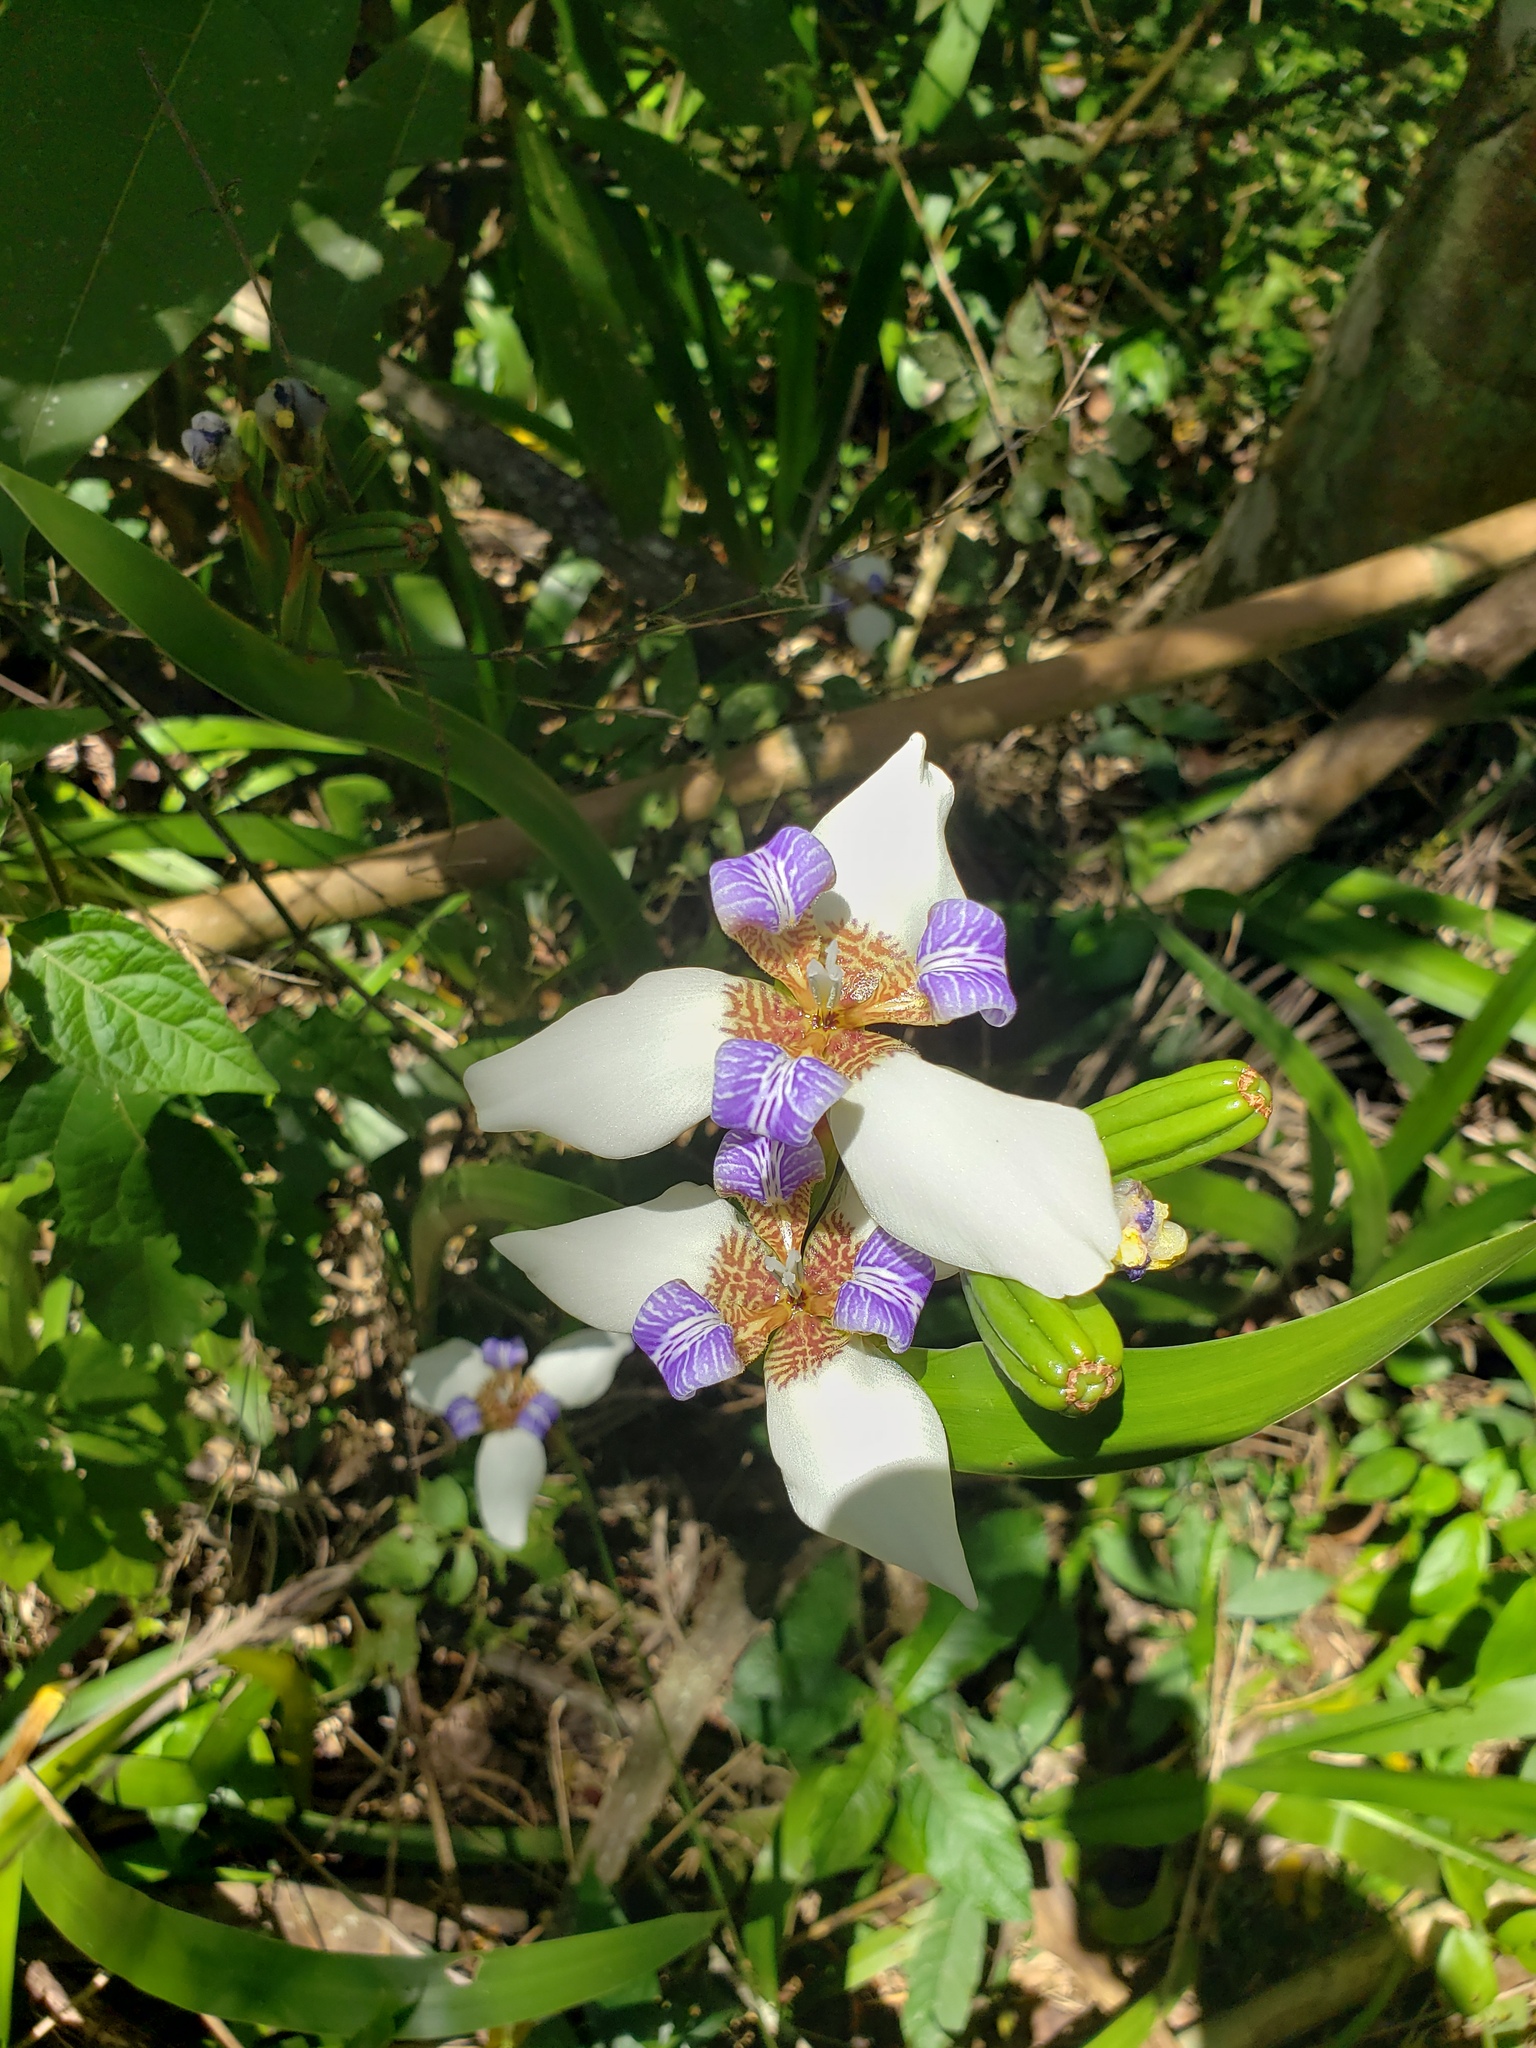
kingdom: Plantae
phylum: Tracheophyta
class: Liliopsida
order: Asparagales
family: Iridaceae
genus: Trimezia
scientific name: Trimezia candida
